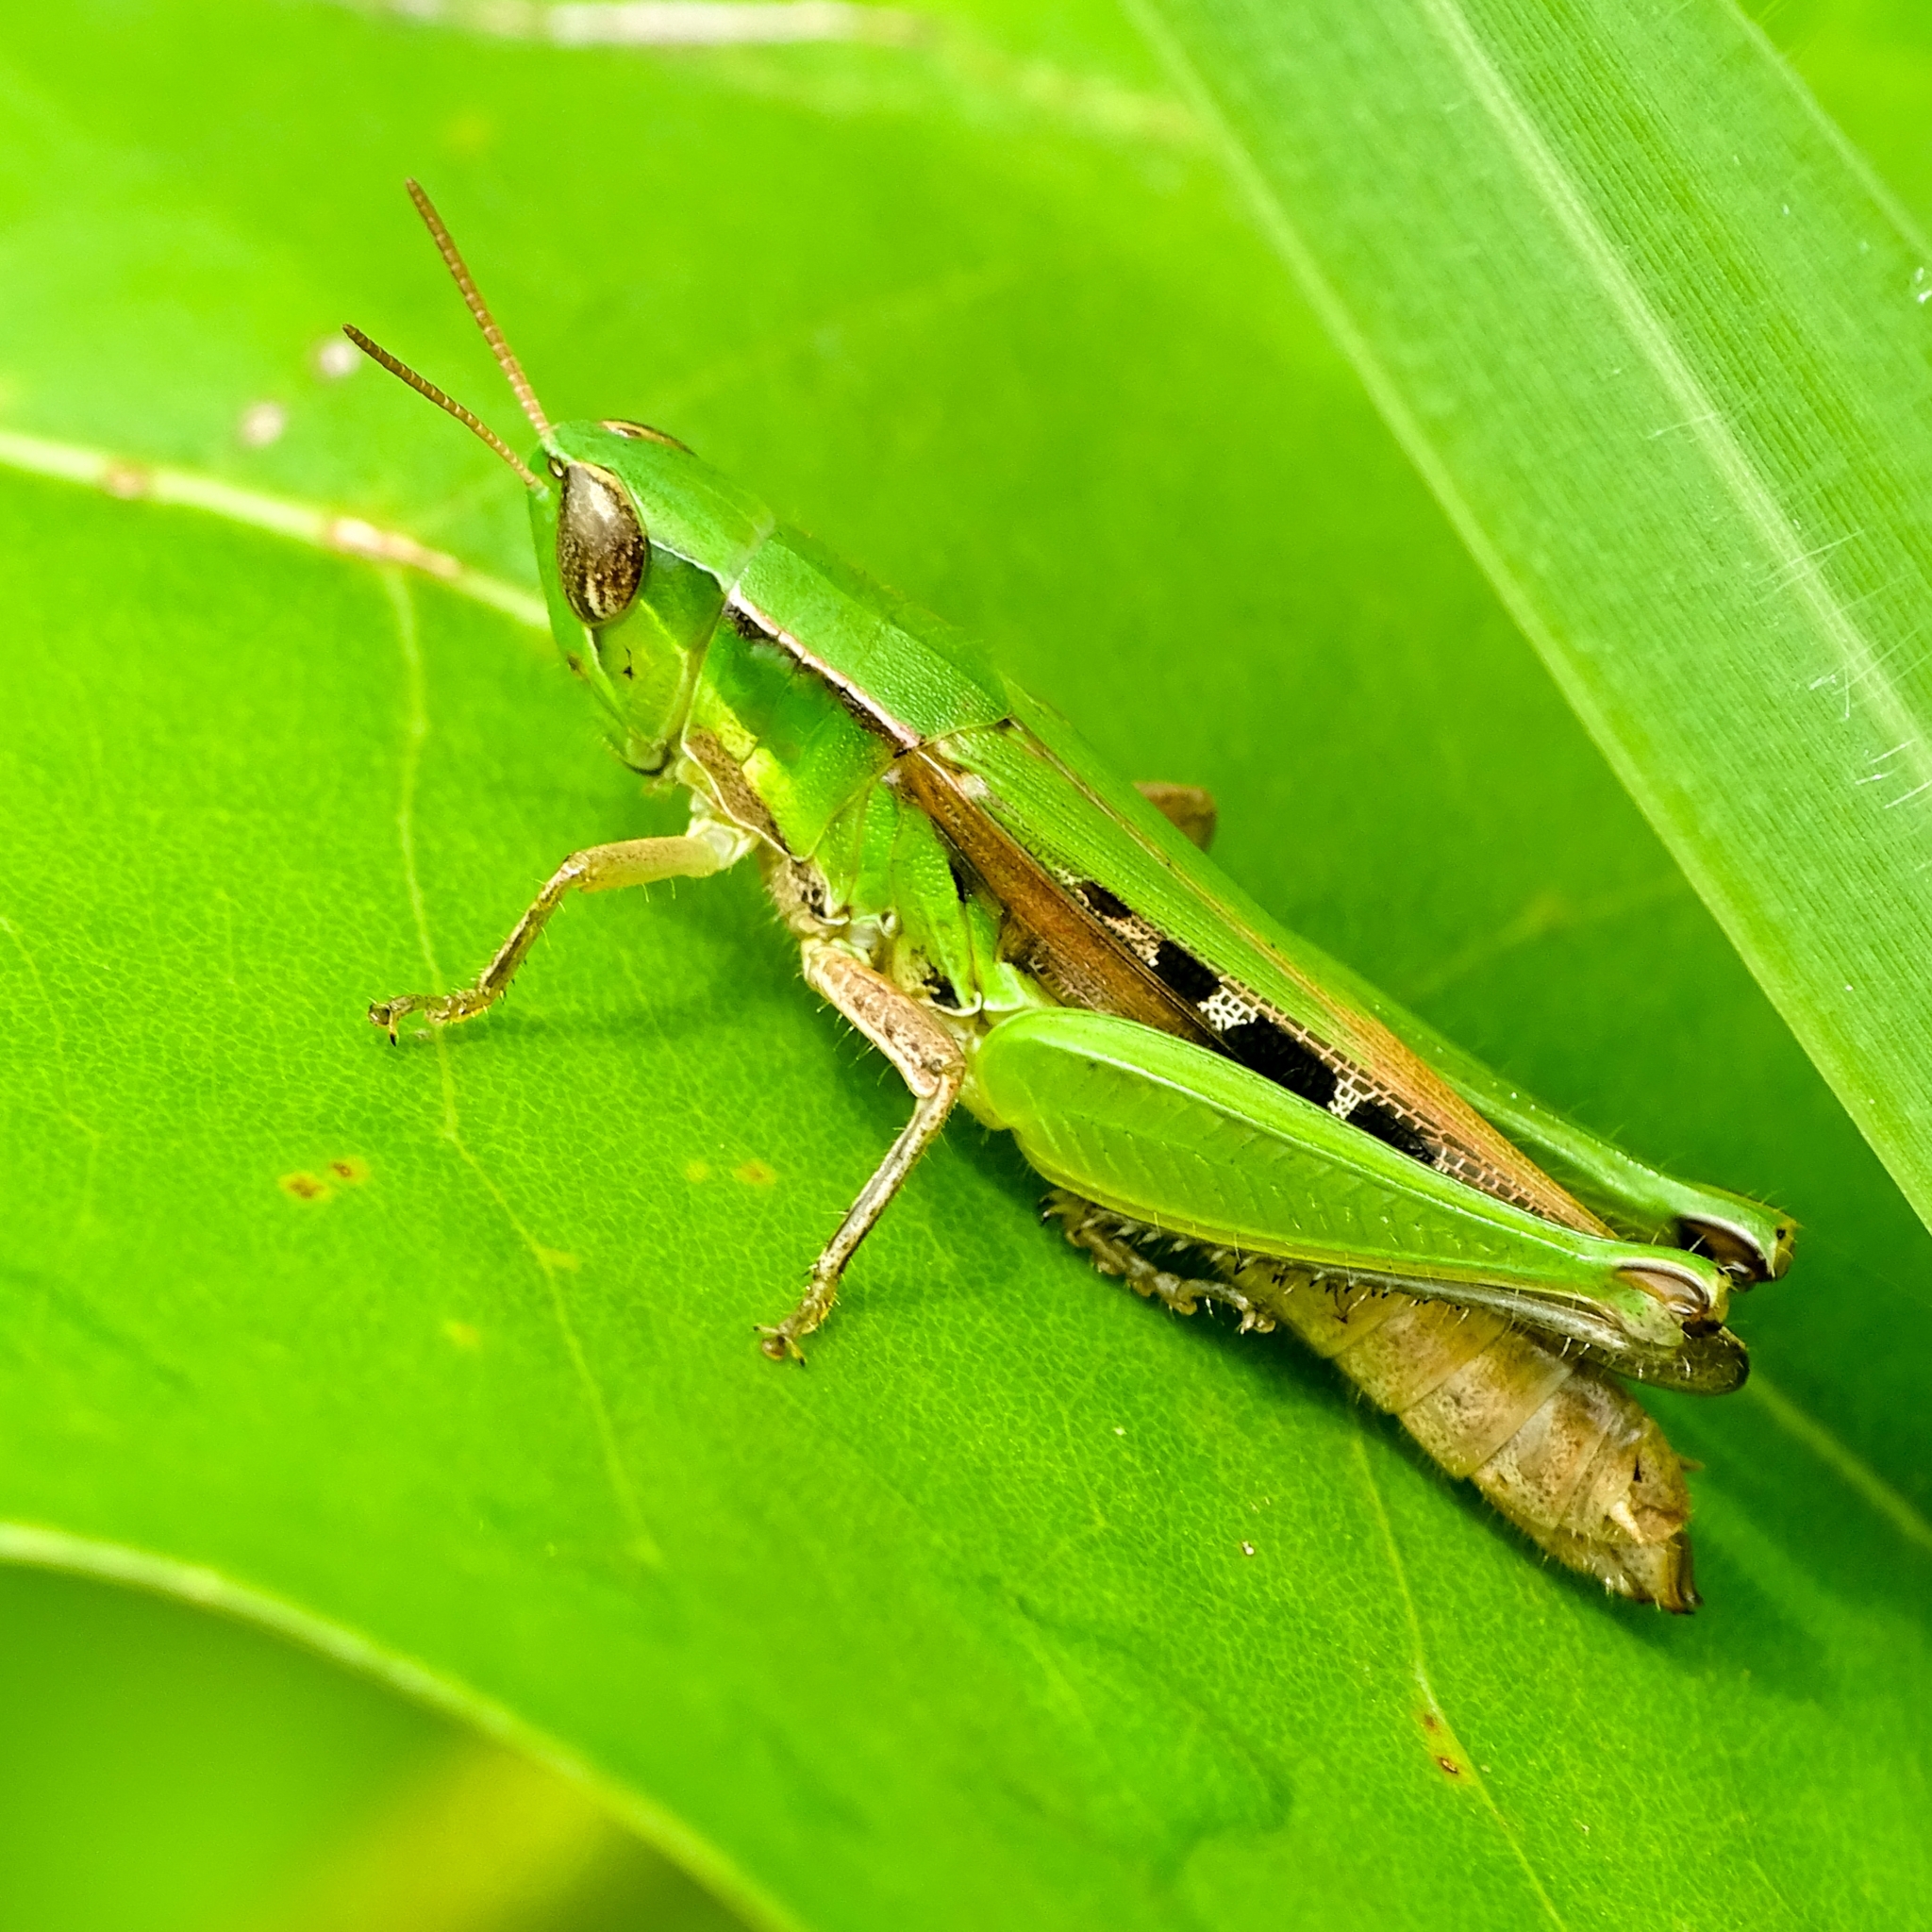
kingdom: Animalia
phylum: Arthropoda
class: Insecta
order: Orthoptera
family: Acrididae
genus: Spathosternum
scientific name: Spathosternum prasiniferum
